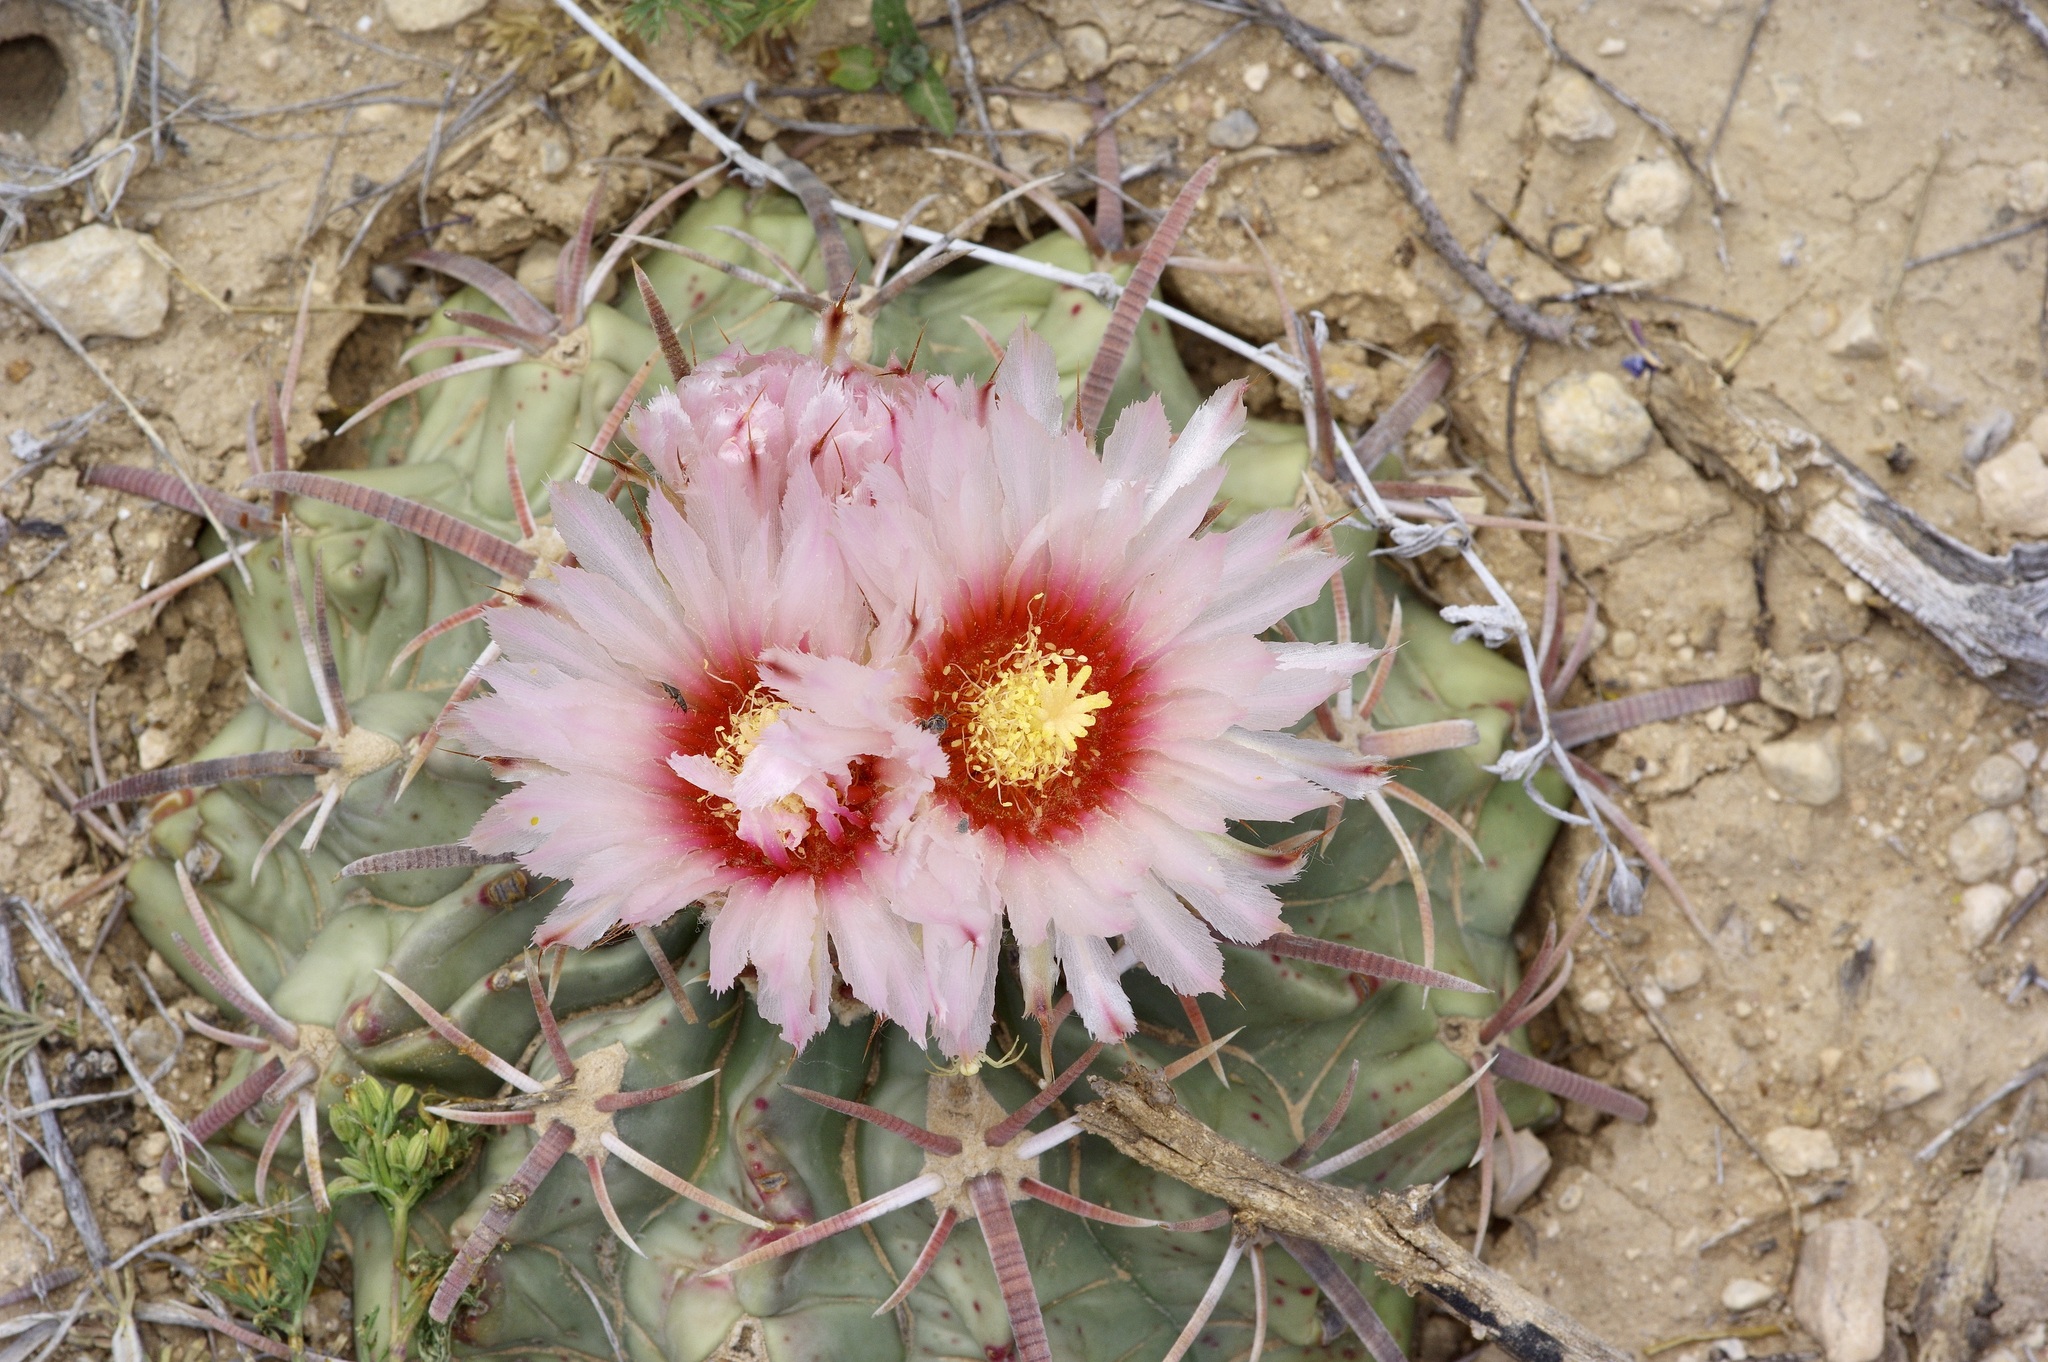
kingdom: Plantae
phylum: Tracheophyta
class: Magnoliopsida
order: Caryophyllales
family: Cactaceae
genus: Echinocactus
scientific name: Echinocactus texensis
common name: Devil's pincushion
